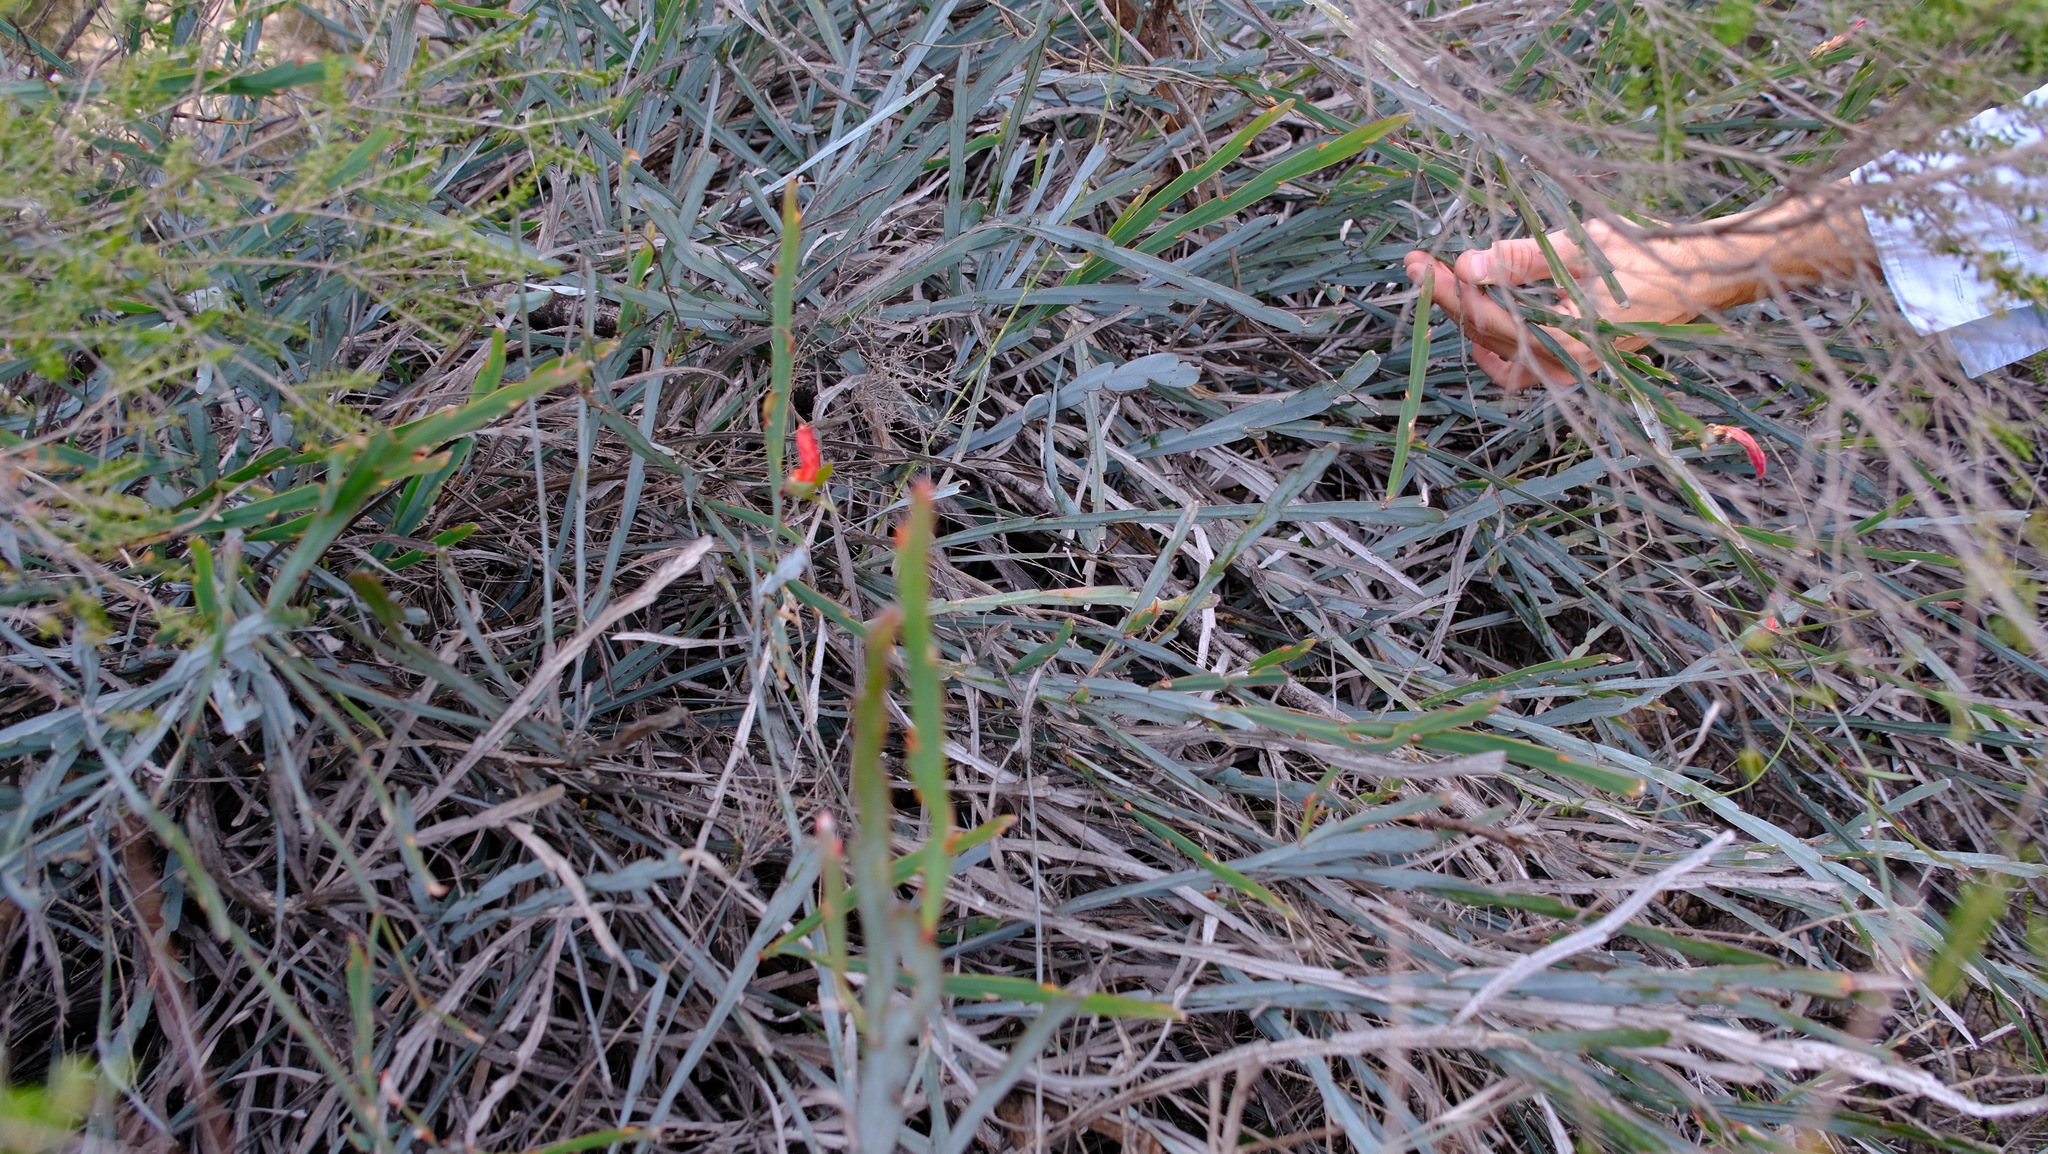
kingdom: Plantae
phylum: Tracheophyta
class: Magnoliopsida
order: Fabales
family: Fabaceae
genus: Leptosema
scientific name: Leptosema aphyllum
